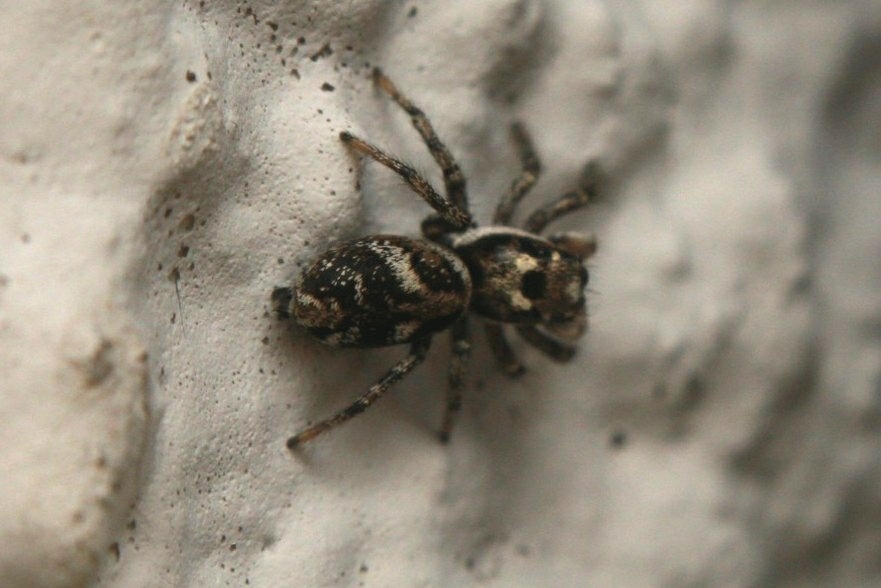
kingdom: Animalia
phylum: Arthropoda
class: Arachnida
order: Araneae
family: Salticidae
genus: Salticus
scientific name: Salticus scenicus
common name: Zebra jumper
